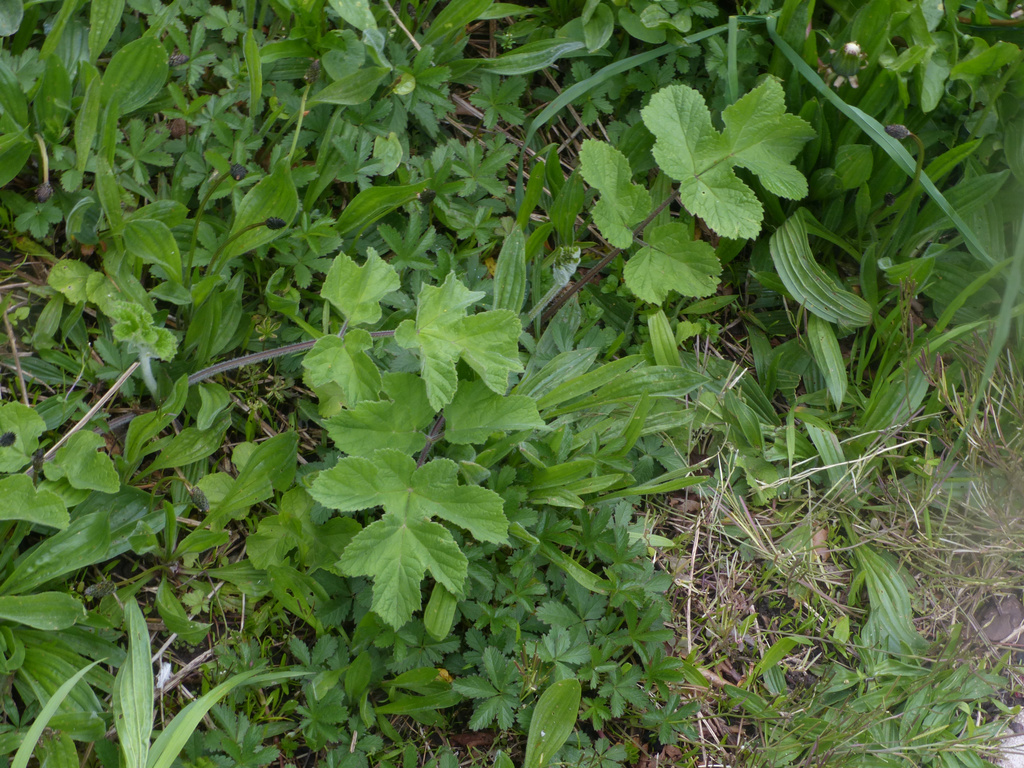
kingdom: Plantae
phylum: Tracheophyta
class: Magnoliopsida
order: Apiales
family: Apiaceae
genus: Heracleum
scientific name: Heracleum sphondylium
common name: Hogweed
